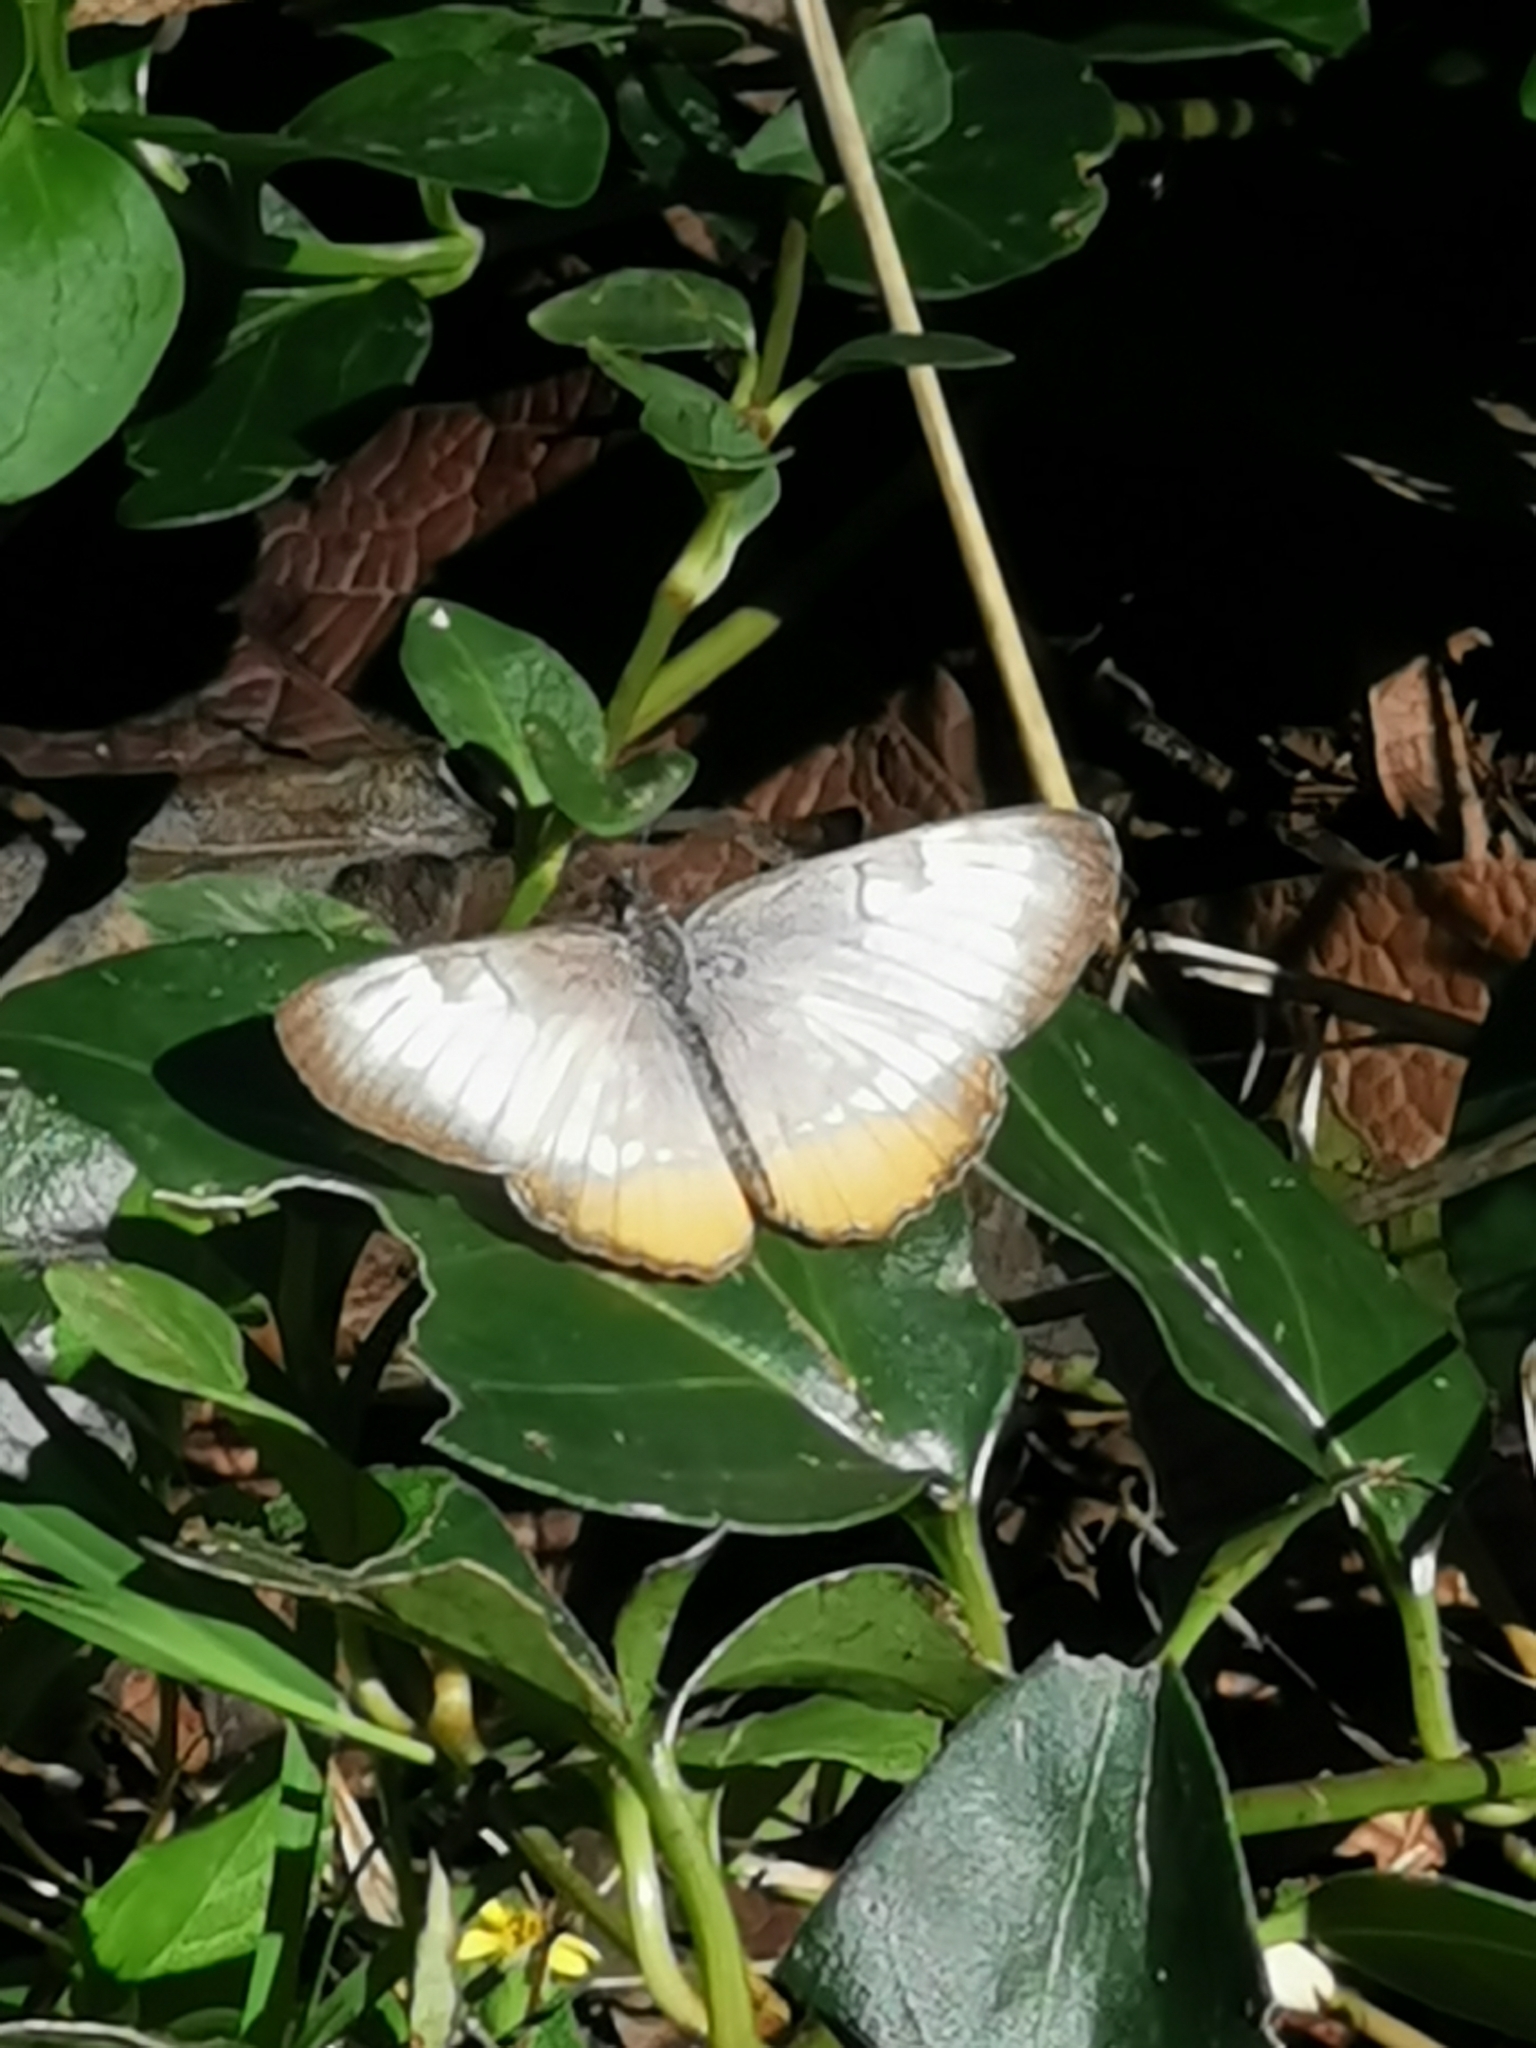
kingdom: Animalia
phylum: Arthropoda
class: Insecta
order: Lepidoptera
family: Nymphalidae
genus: Mestra
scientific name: Mestra amymone
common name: Common mestra
